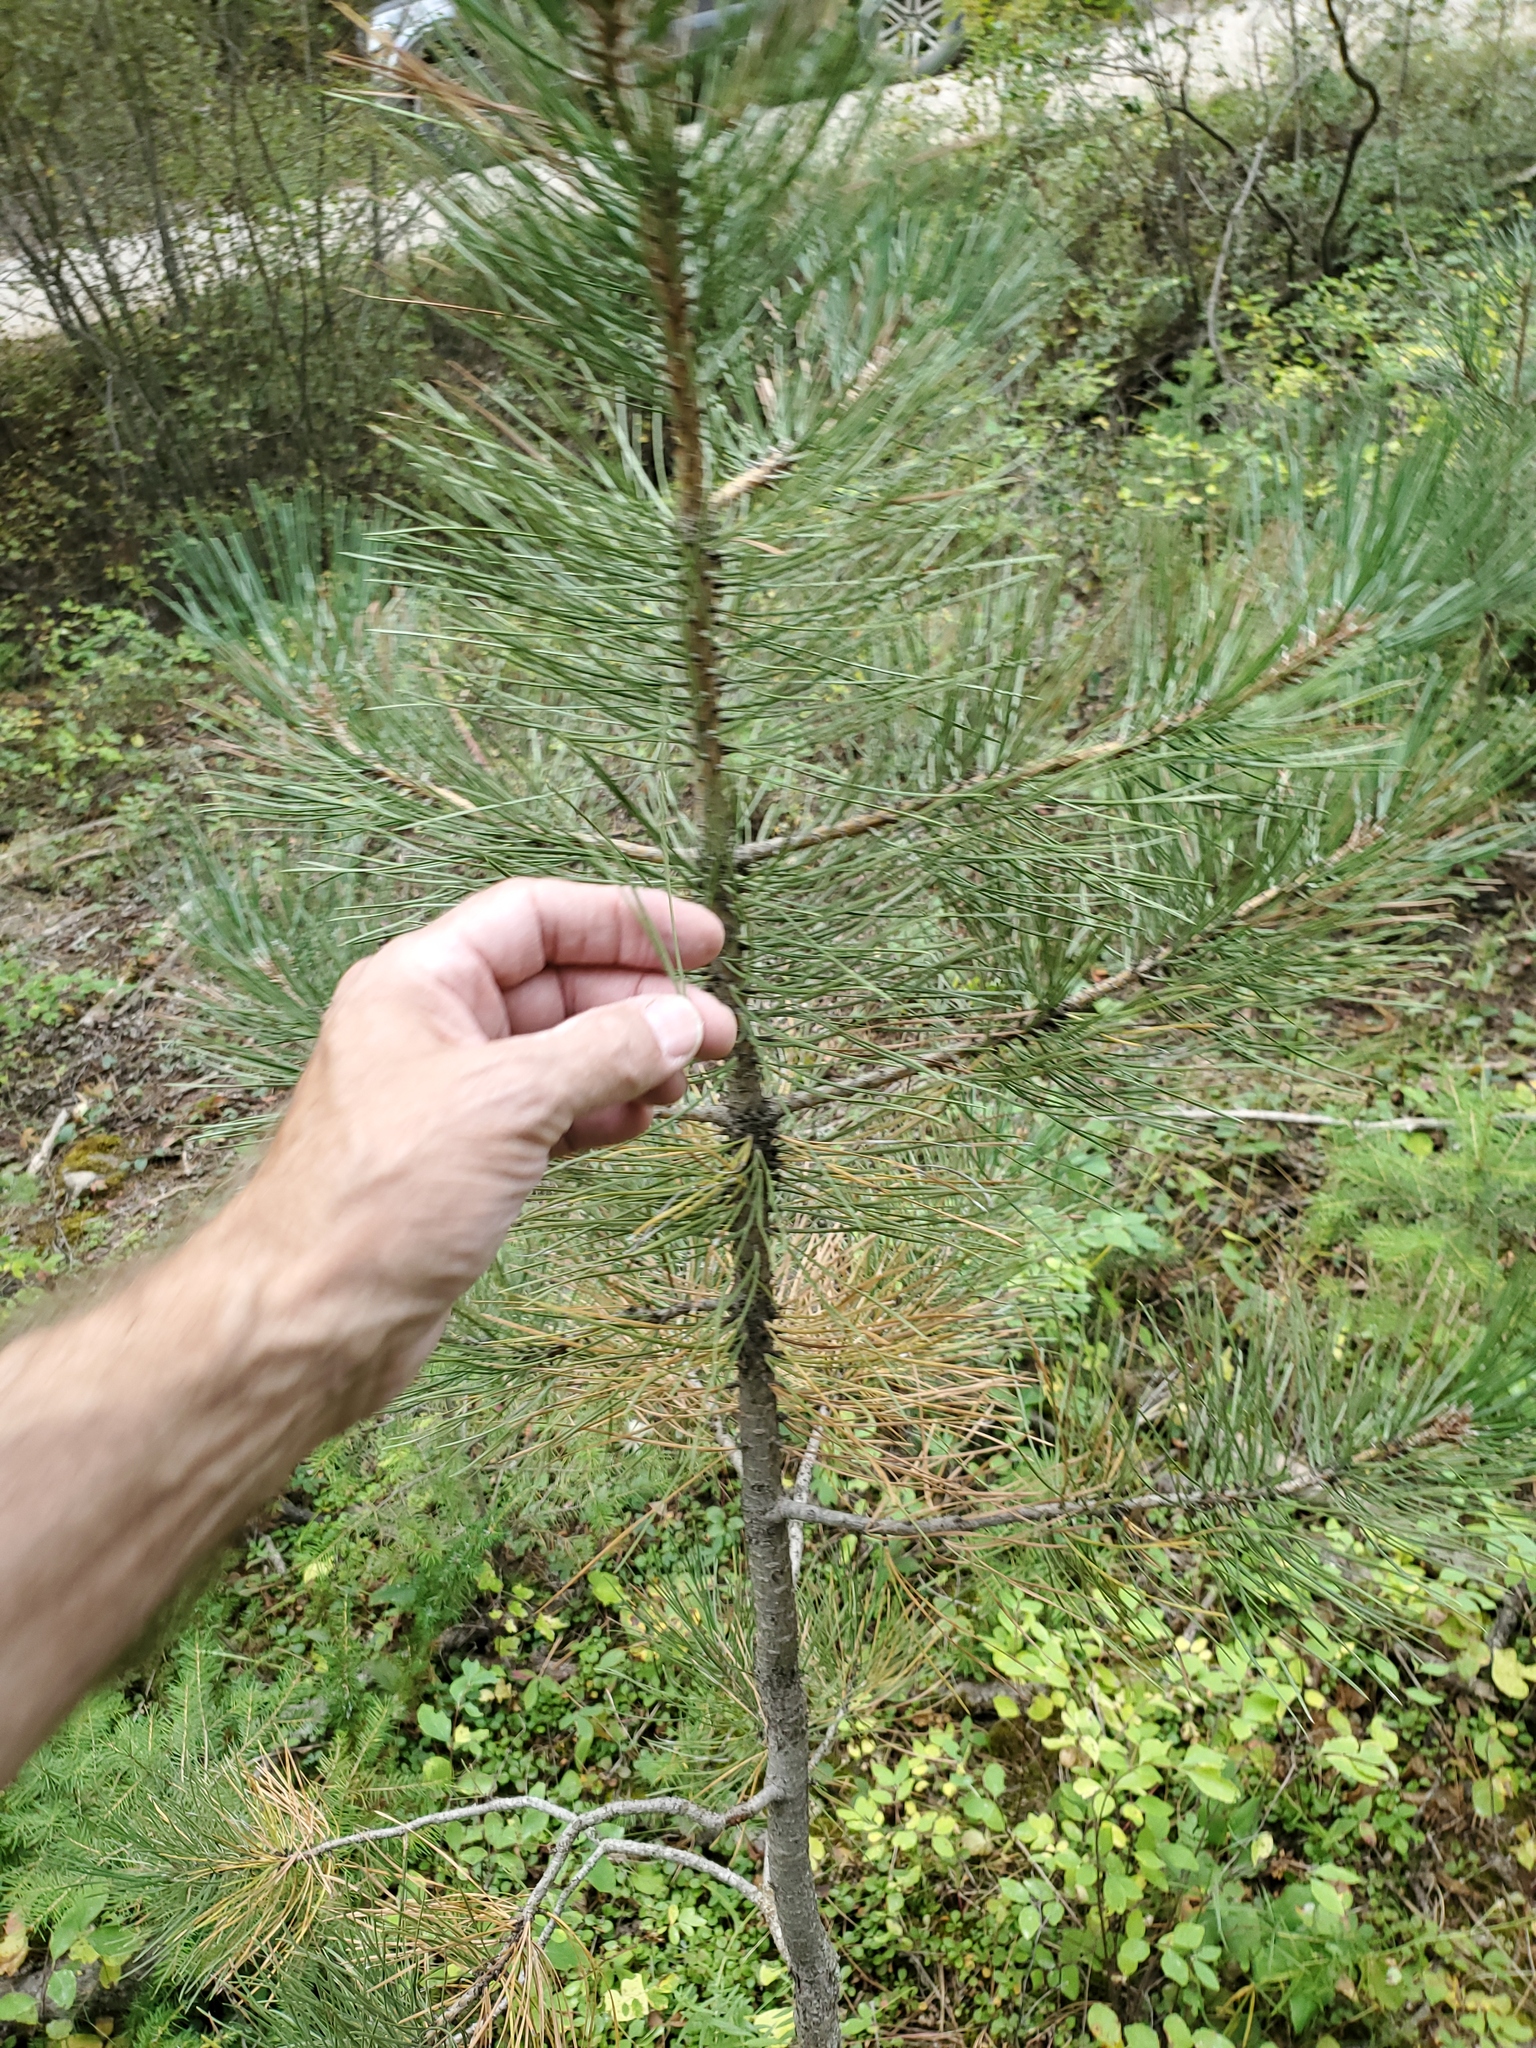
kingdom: Plantae
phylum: Tracheophyta
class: Pinopsida
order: Pinales
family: Pinaceae
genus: Pinus
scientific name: Pinus ponderosa
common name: Western yellow-pine
